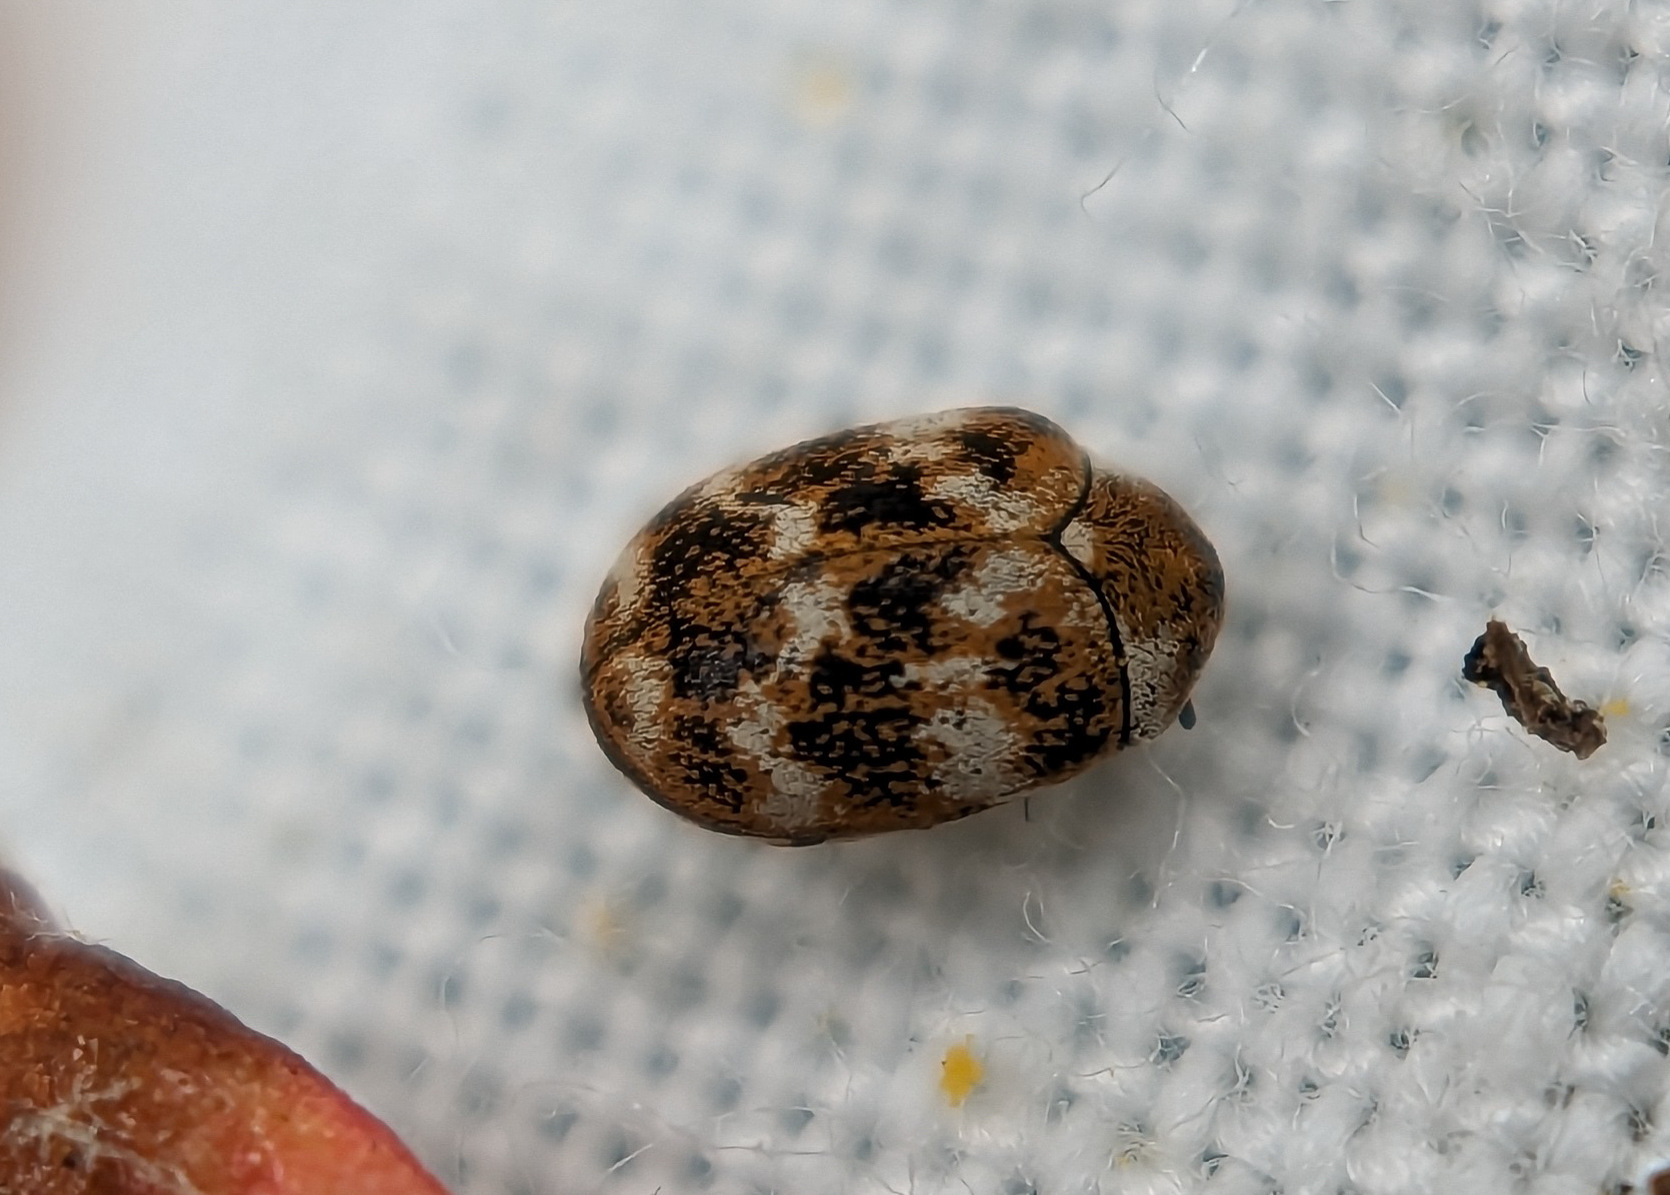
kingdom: Animalia
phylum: Arthropoda
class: Insecta
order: Coleoptera
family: Dermestidae
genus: Anthrenus
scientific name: Anthrenus verbasci
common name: Varied carpet beetle
